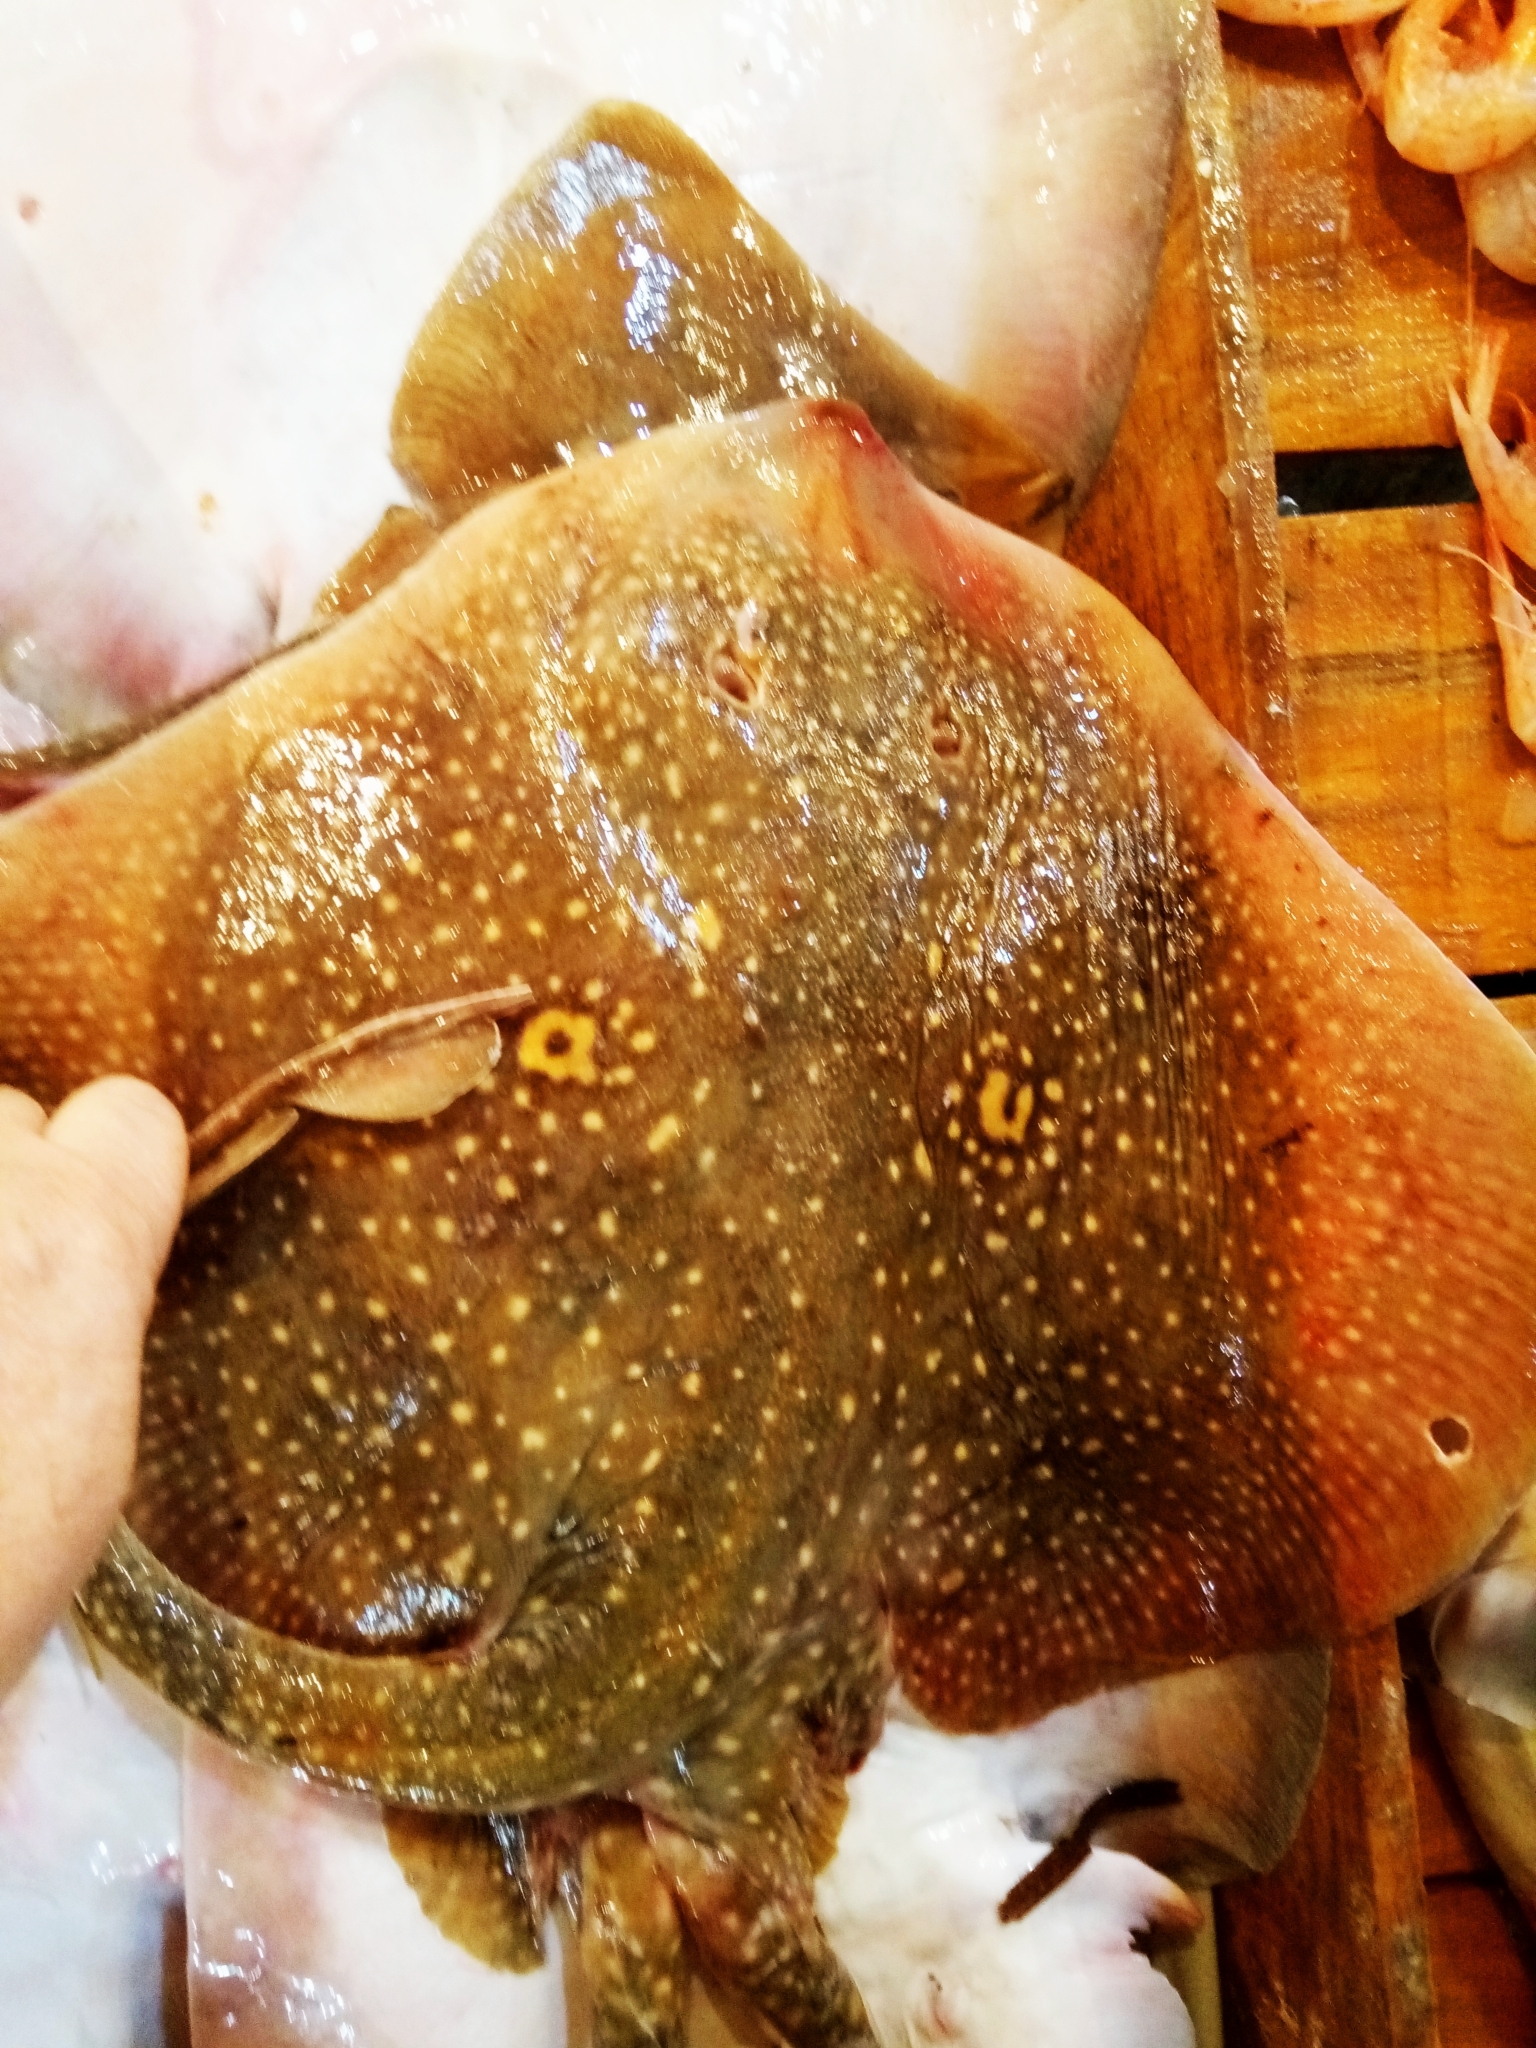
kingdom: Animalia
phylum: Chordata
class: Elasmobranchii
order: Rajiformes
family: Rajidae
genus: Raja
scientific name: Raja radula
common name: Rough ray
